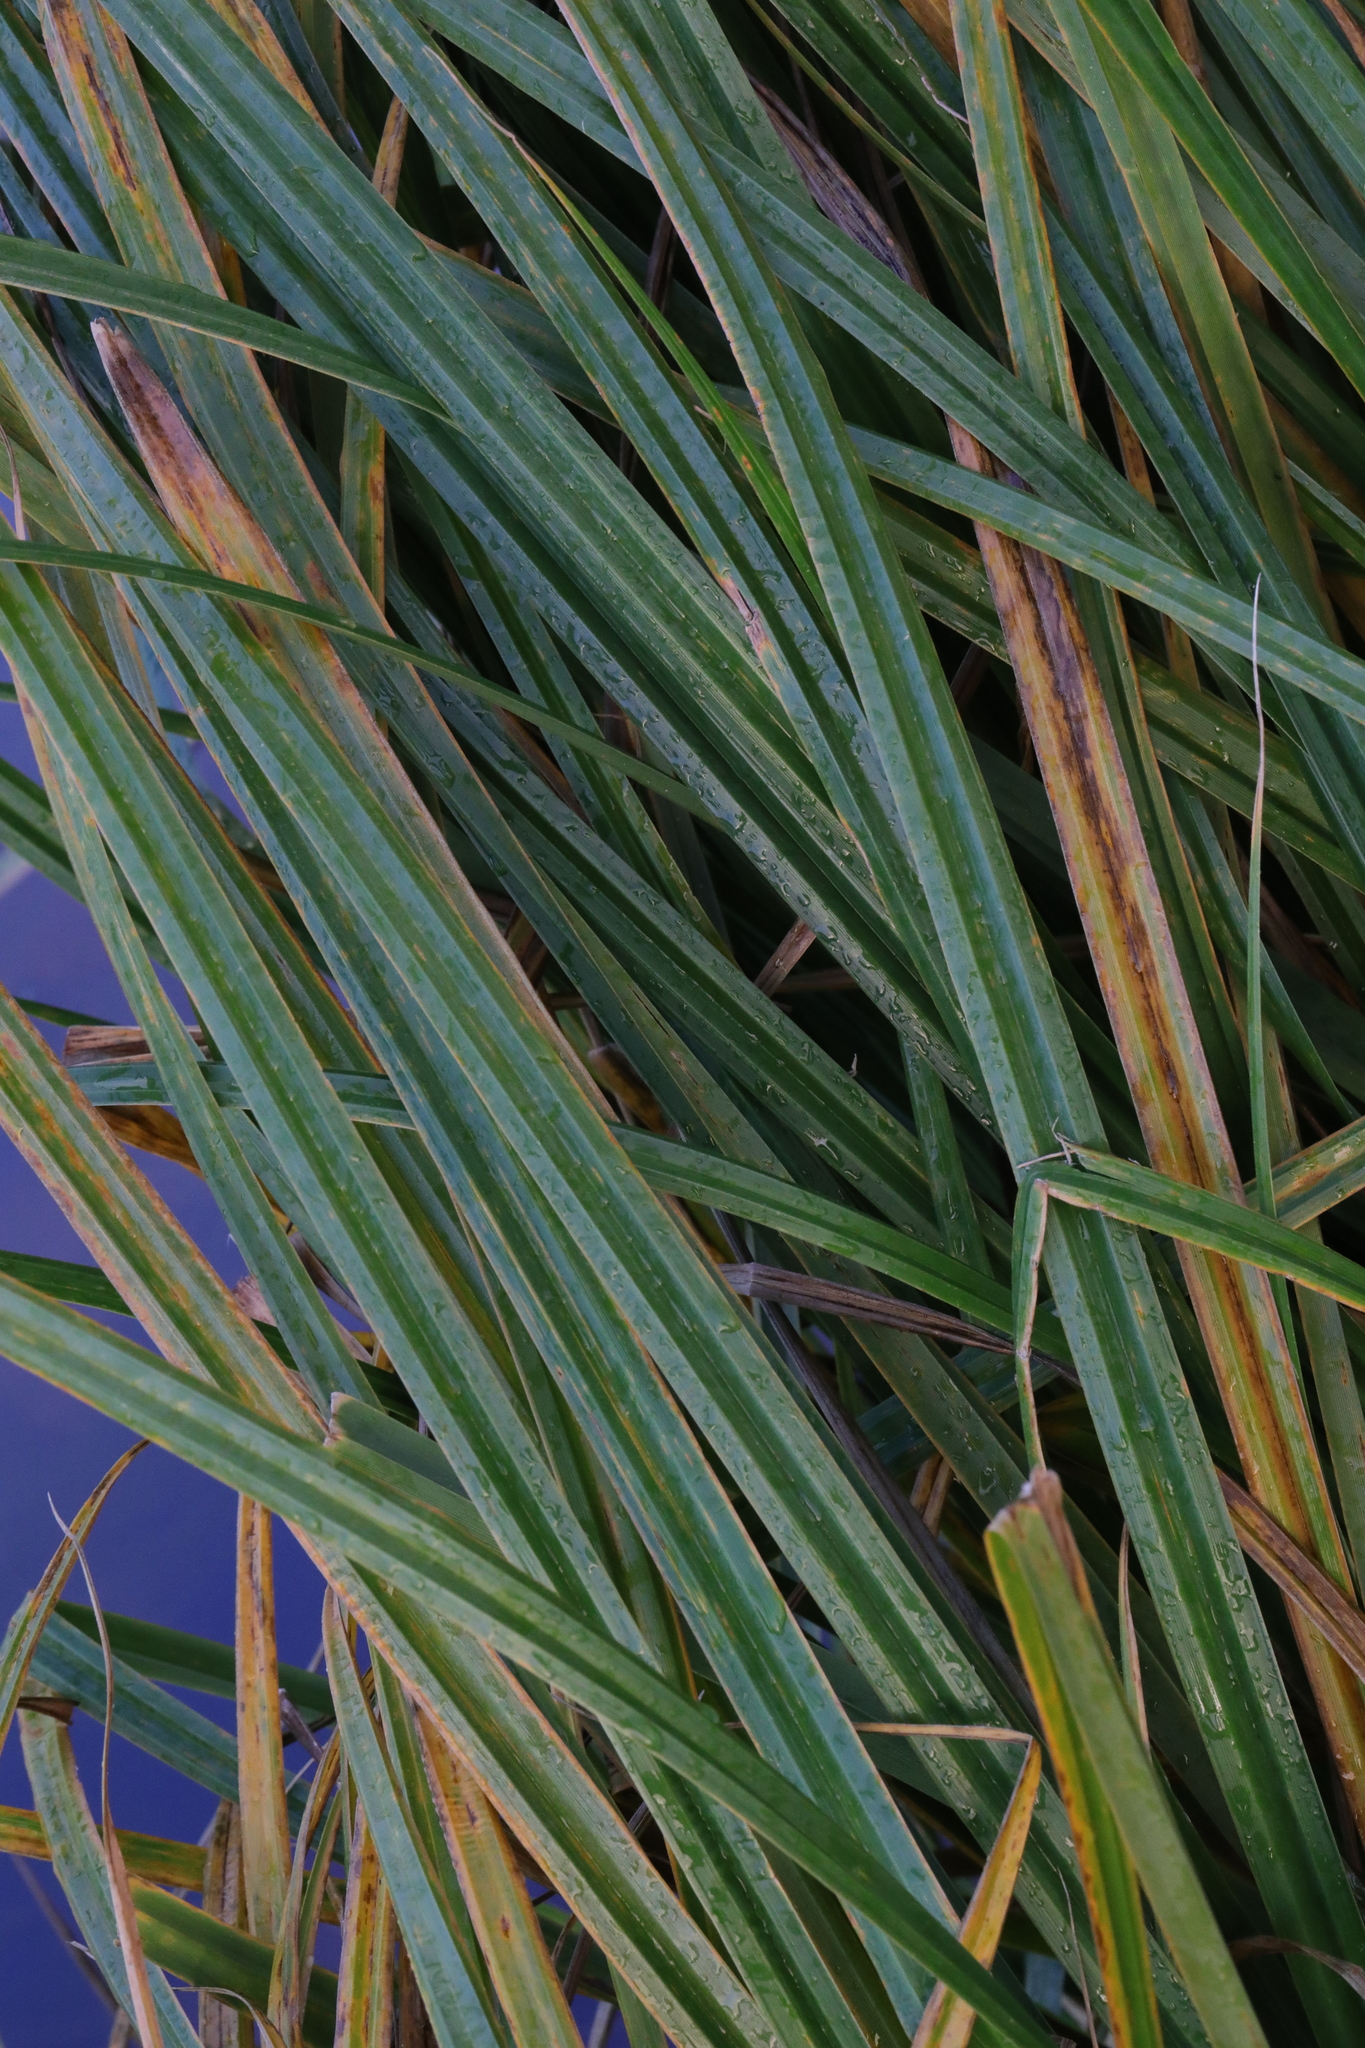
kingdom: Plantae
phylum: Tracheophyta
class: Liliopsida
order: Poales
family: Cyperaceae
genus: Carex
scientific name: Carex pendula
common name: Pendulous sedge
